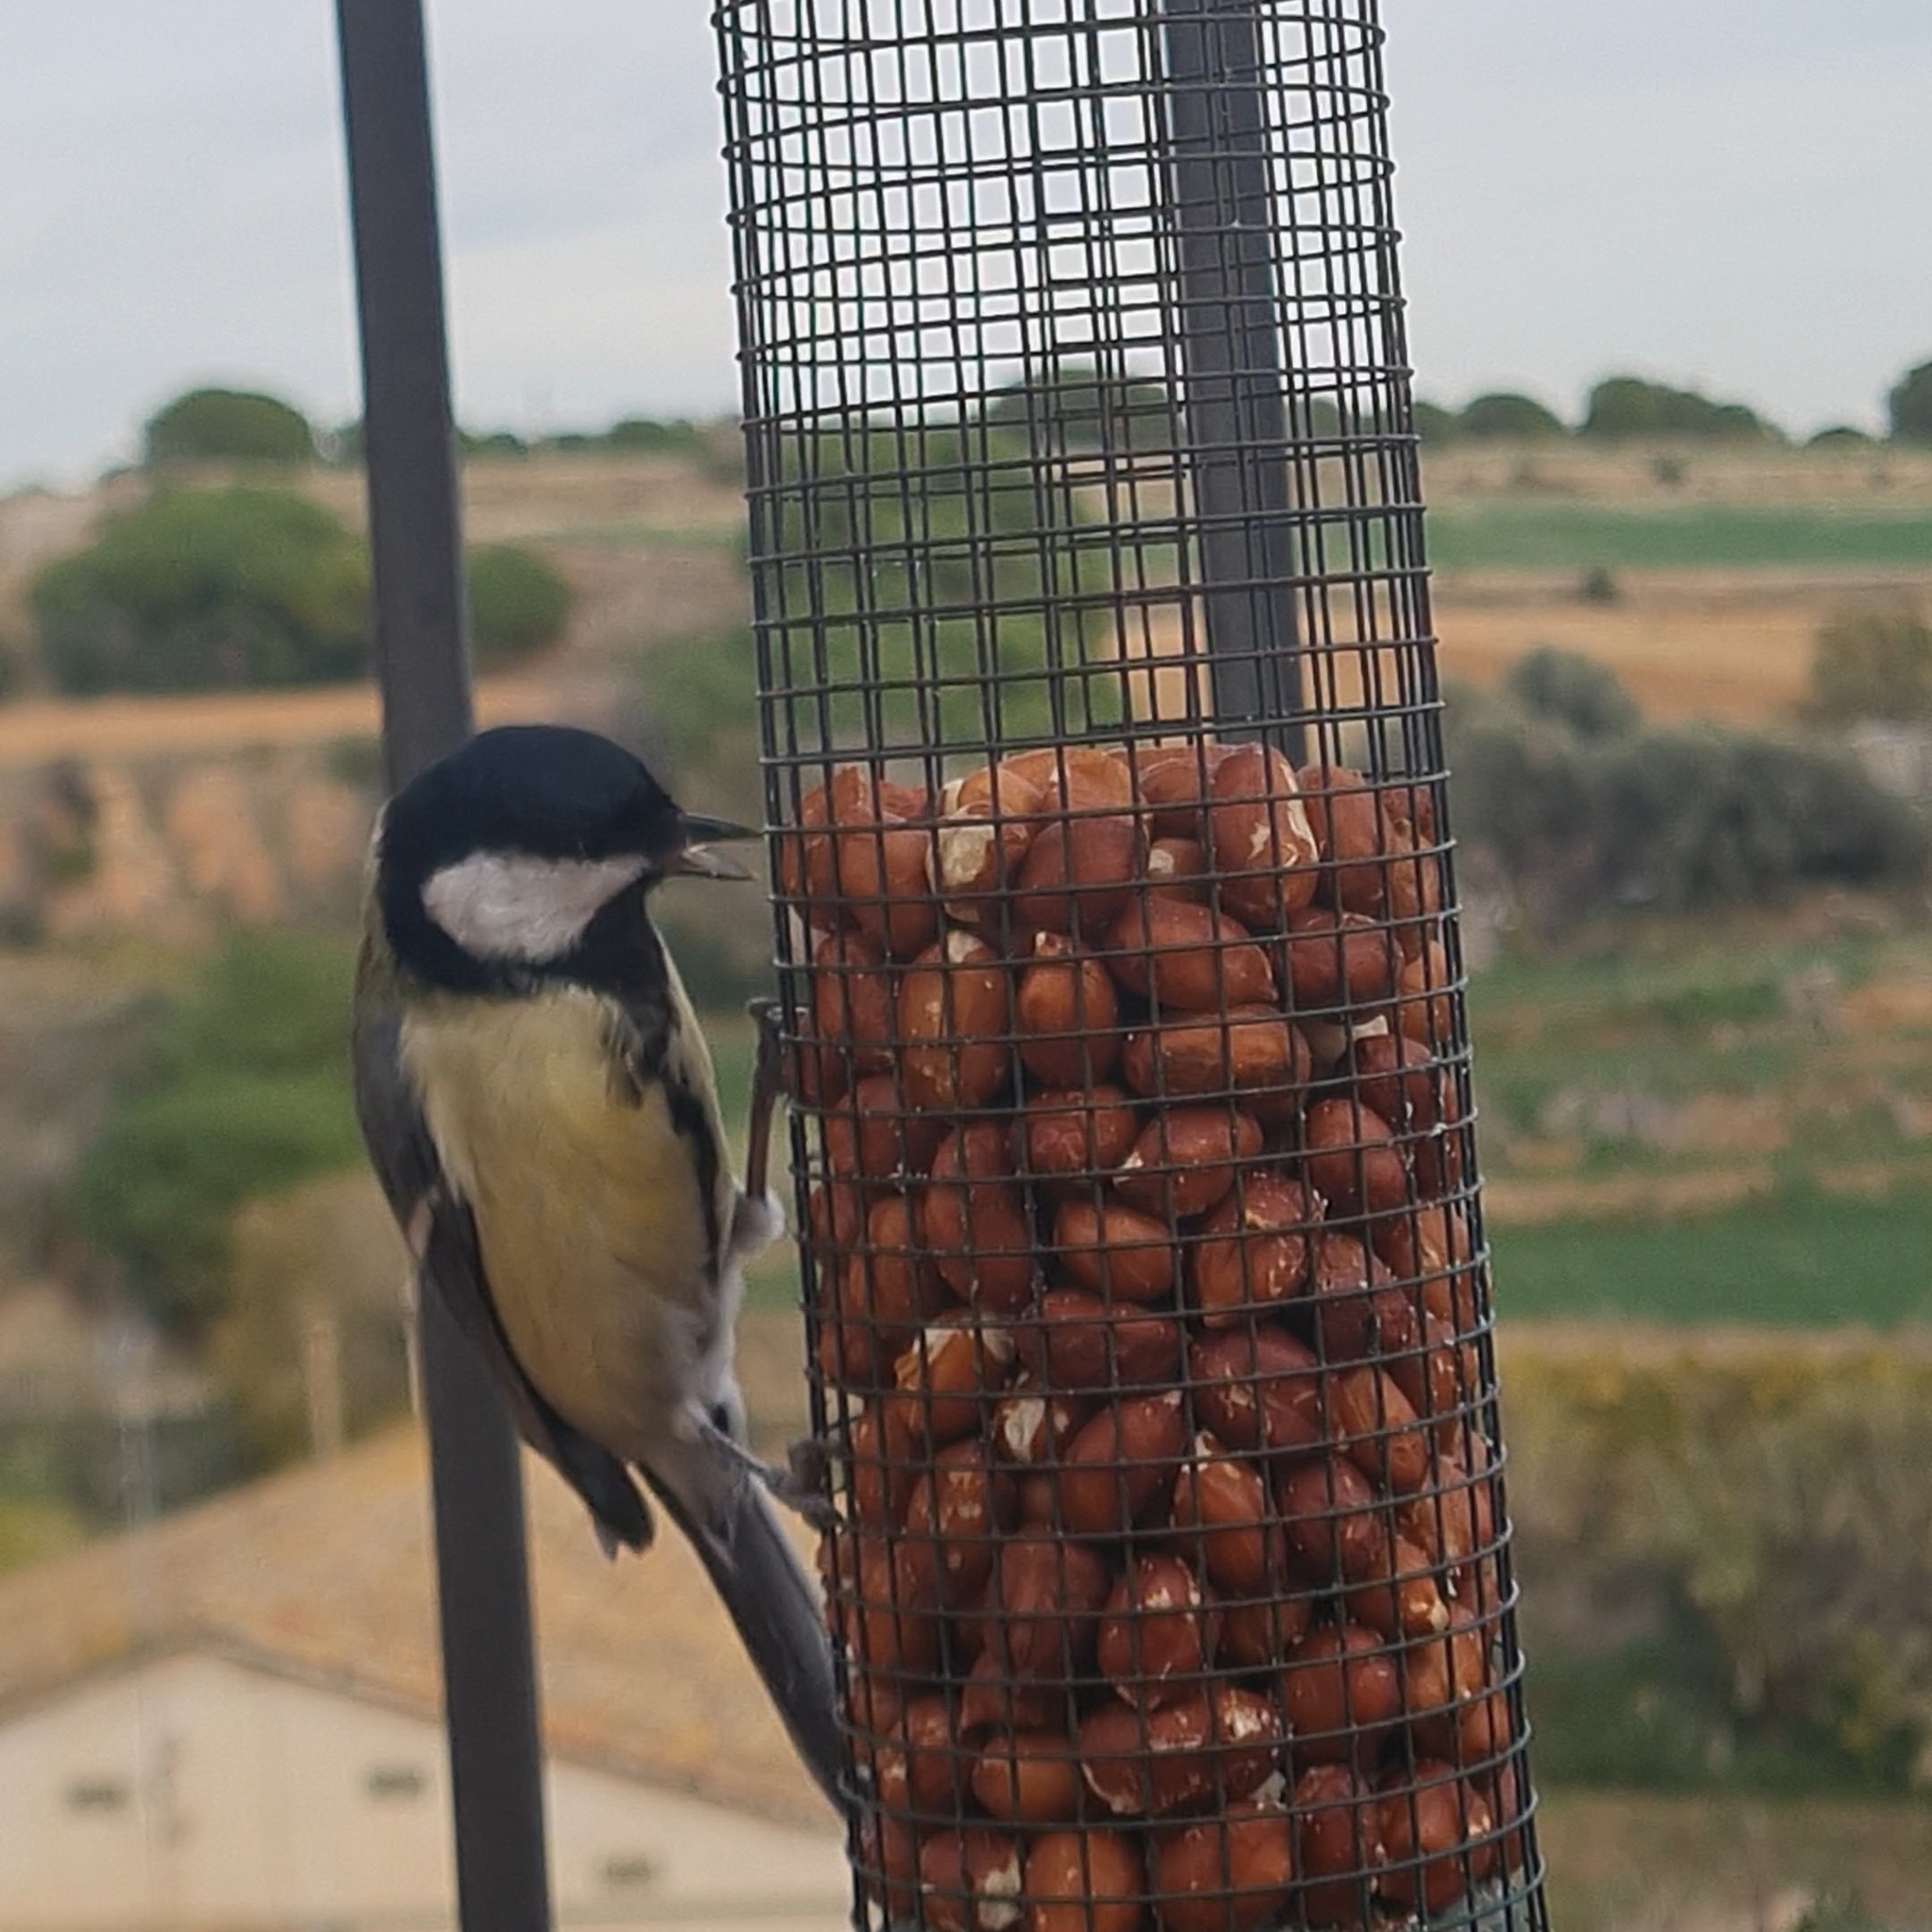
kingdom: Animalia
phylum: Chordata
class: Aves
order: Passeriformes
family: Paridae
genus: Parus
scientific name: Parus major
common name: Great tit
